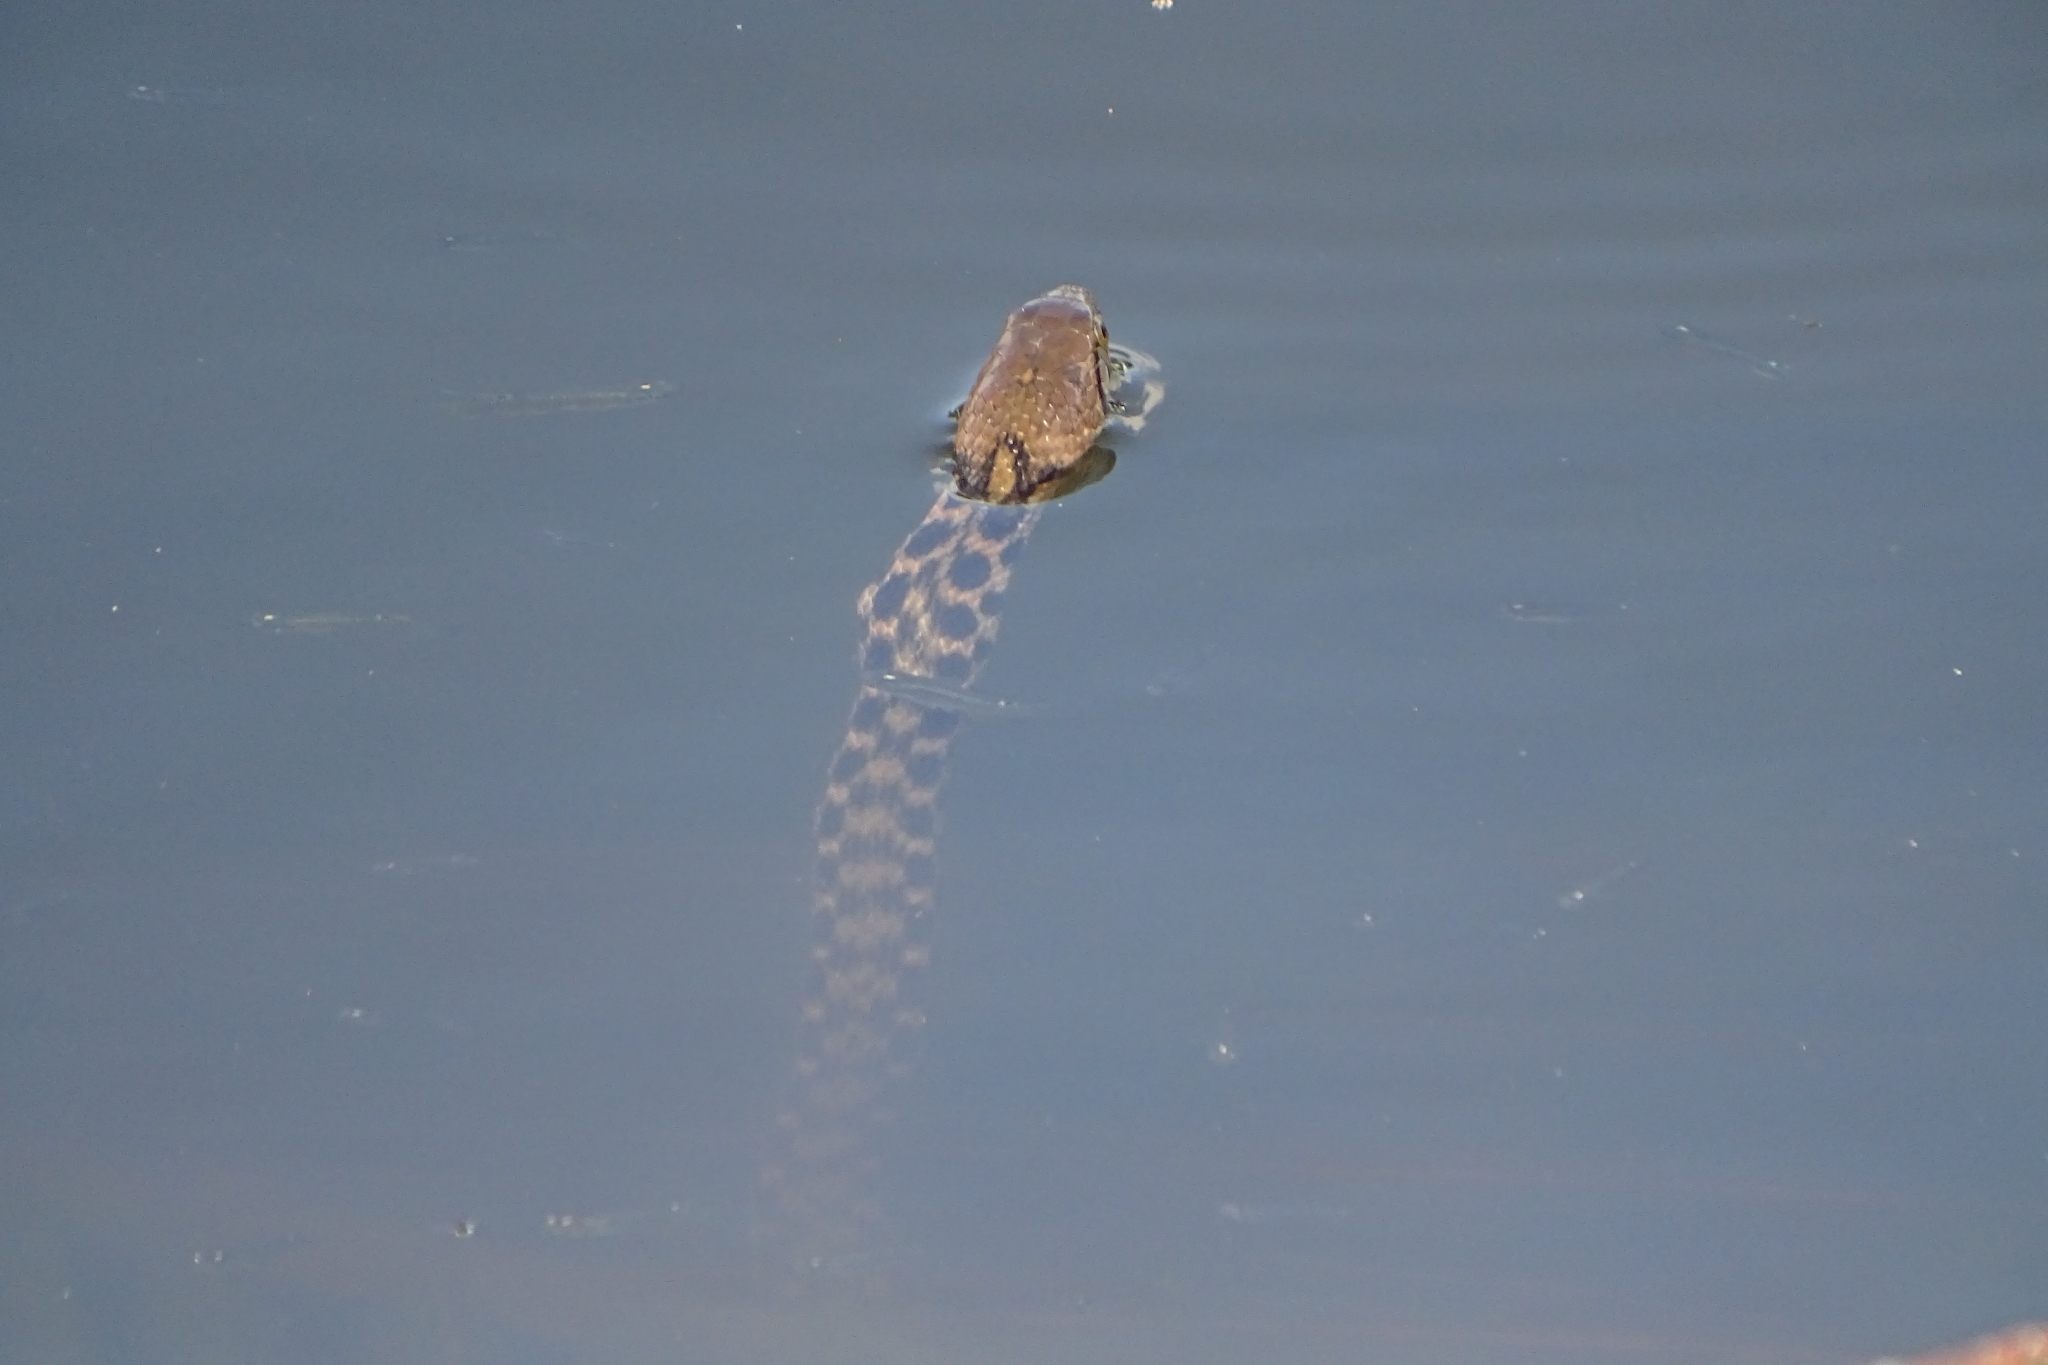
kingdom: Animalia
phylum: Chordata
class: Squamata
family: Colubridae
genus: Fowlea
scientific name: Fowlea piscator
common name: Asiatic water snake
